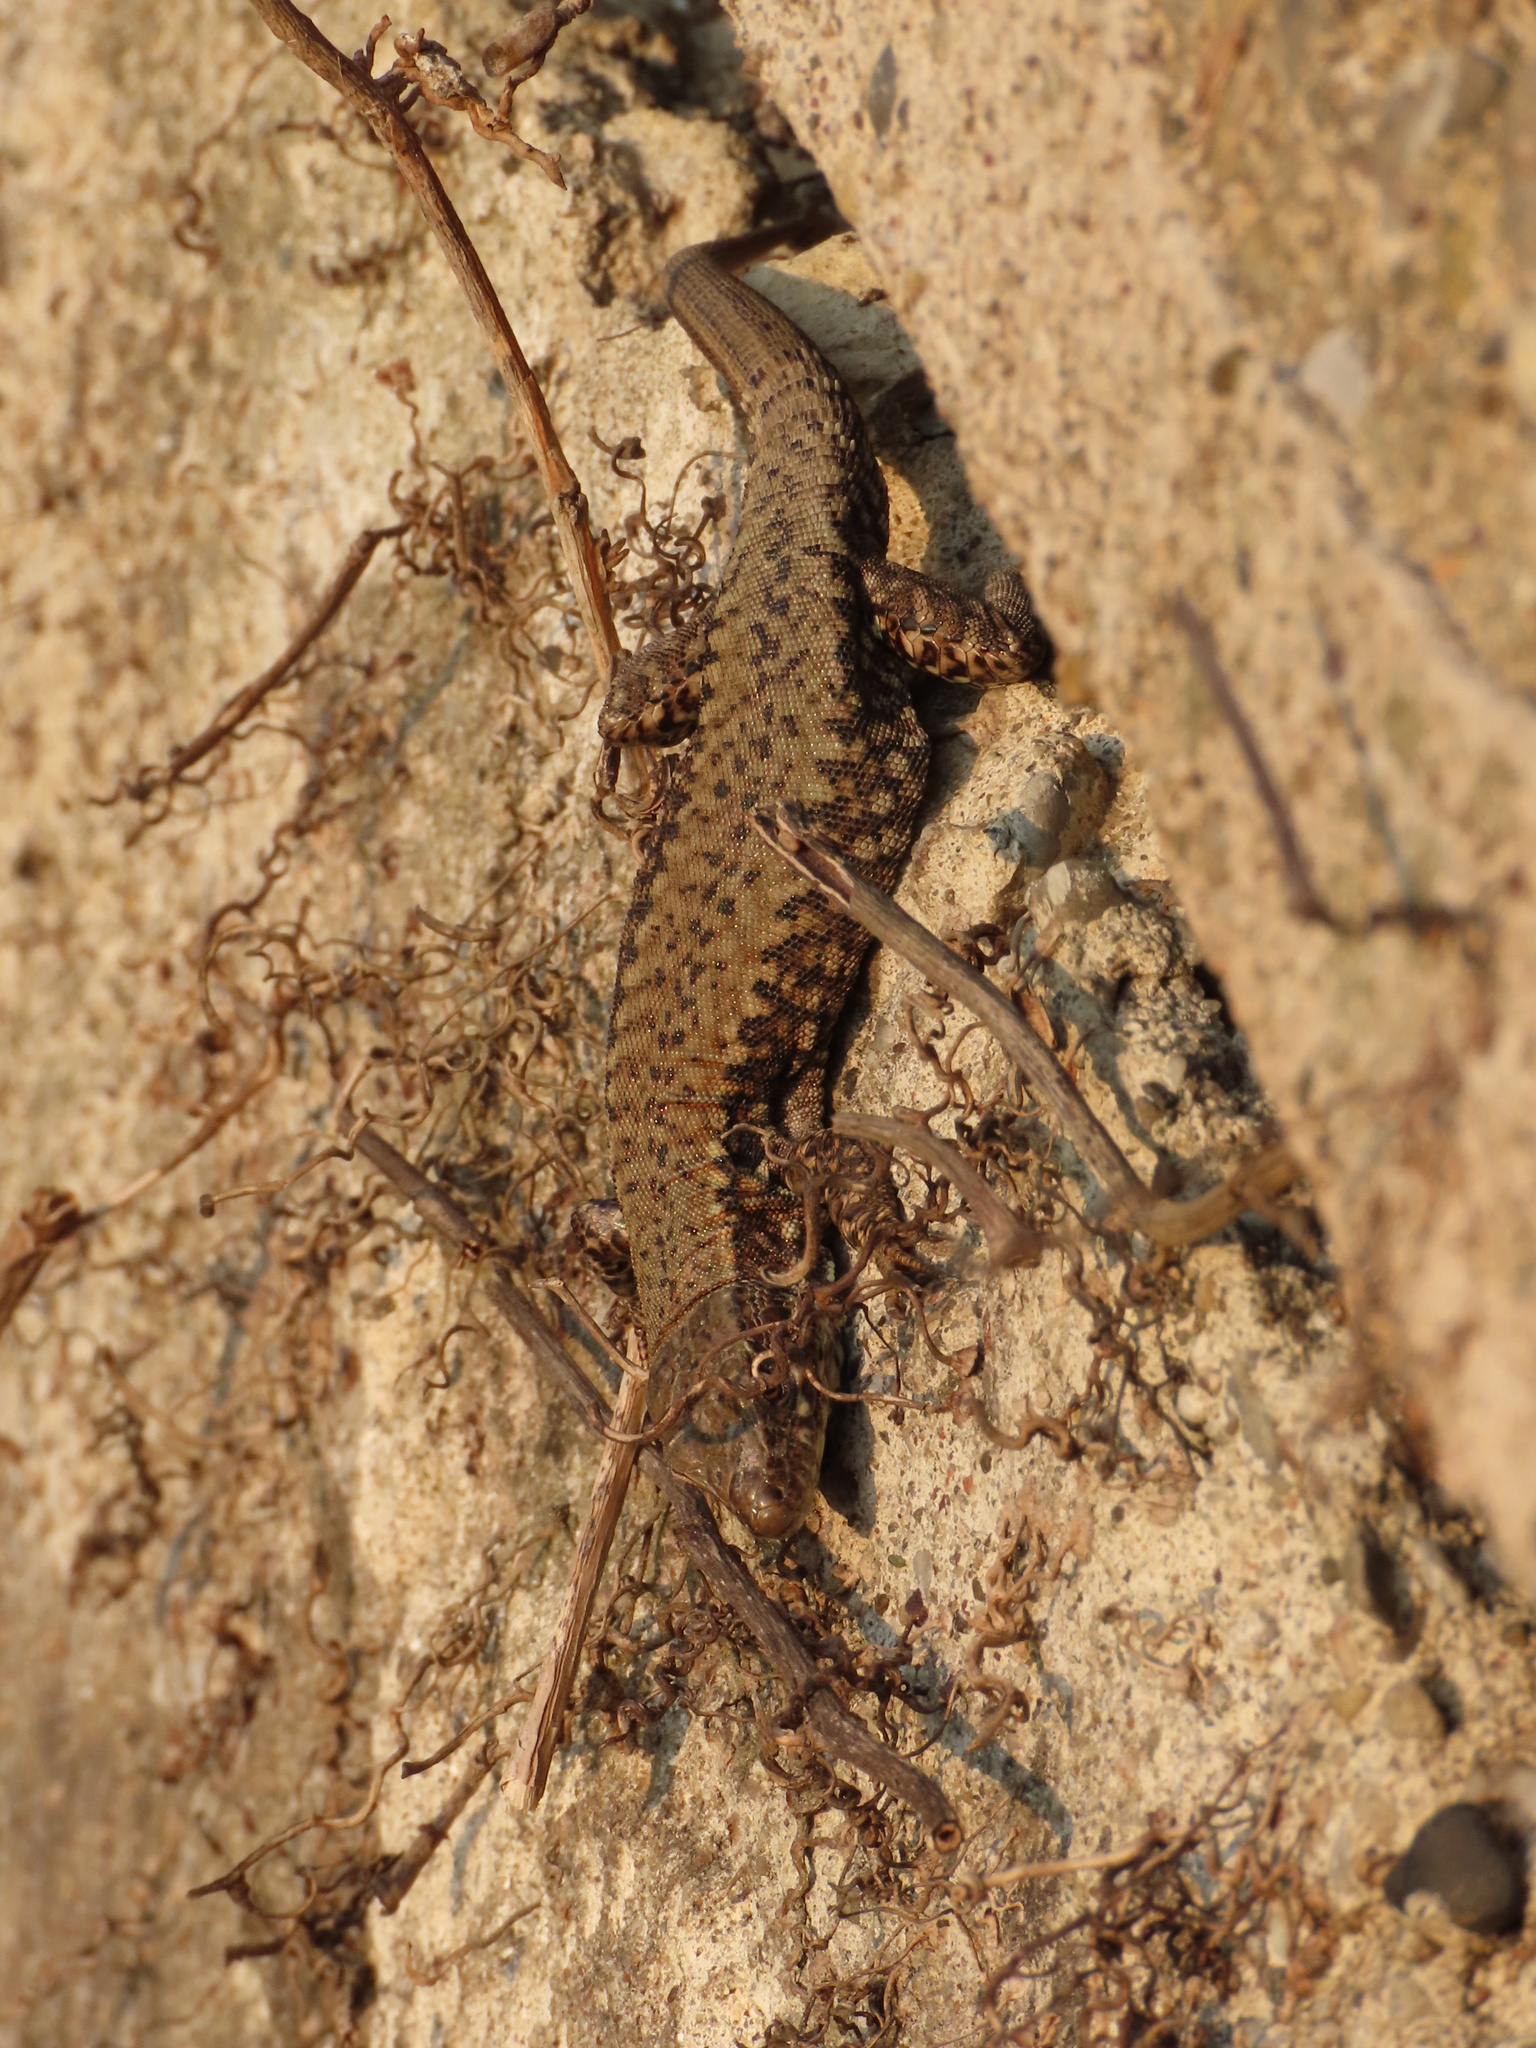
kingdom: Animalia
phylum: Chordata
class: Squamata
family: Lacertidae
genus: Podarcis
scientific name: Podarcis muralis
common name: Common wall lizard
